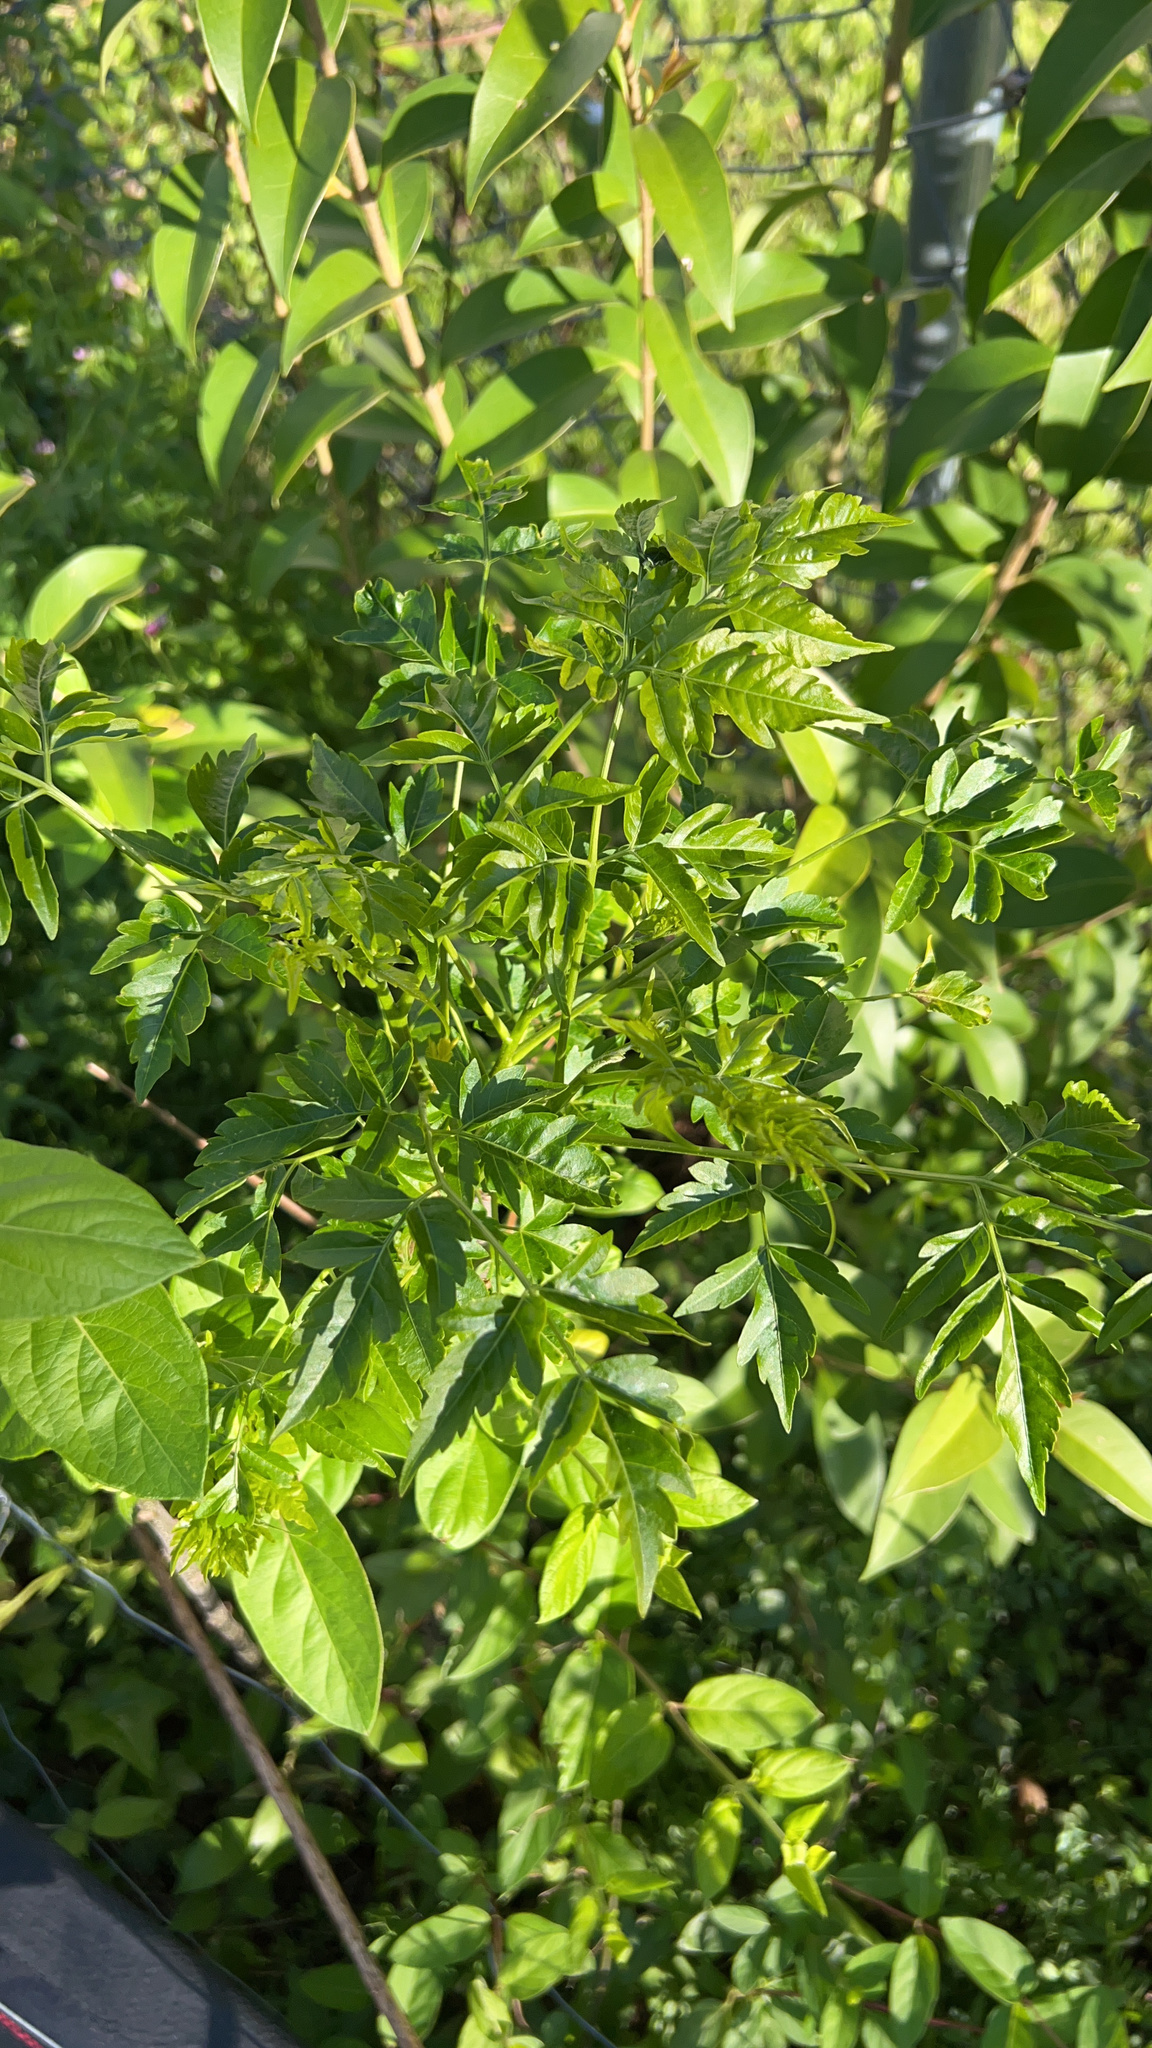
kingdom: Plantae
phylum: Tracheophyta
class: Magnoliopsida
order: Sapindales
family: Meliaceae
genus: Melia
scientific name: Melia azedarach
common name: Chinaberrytree
